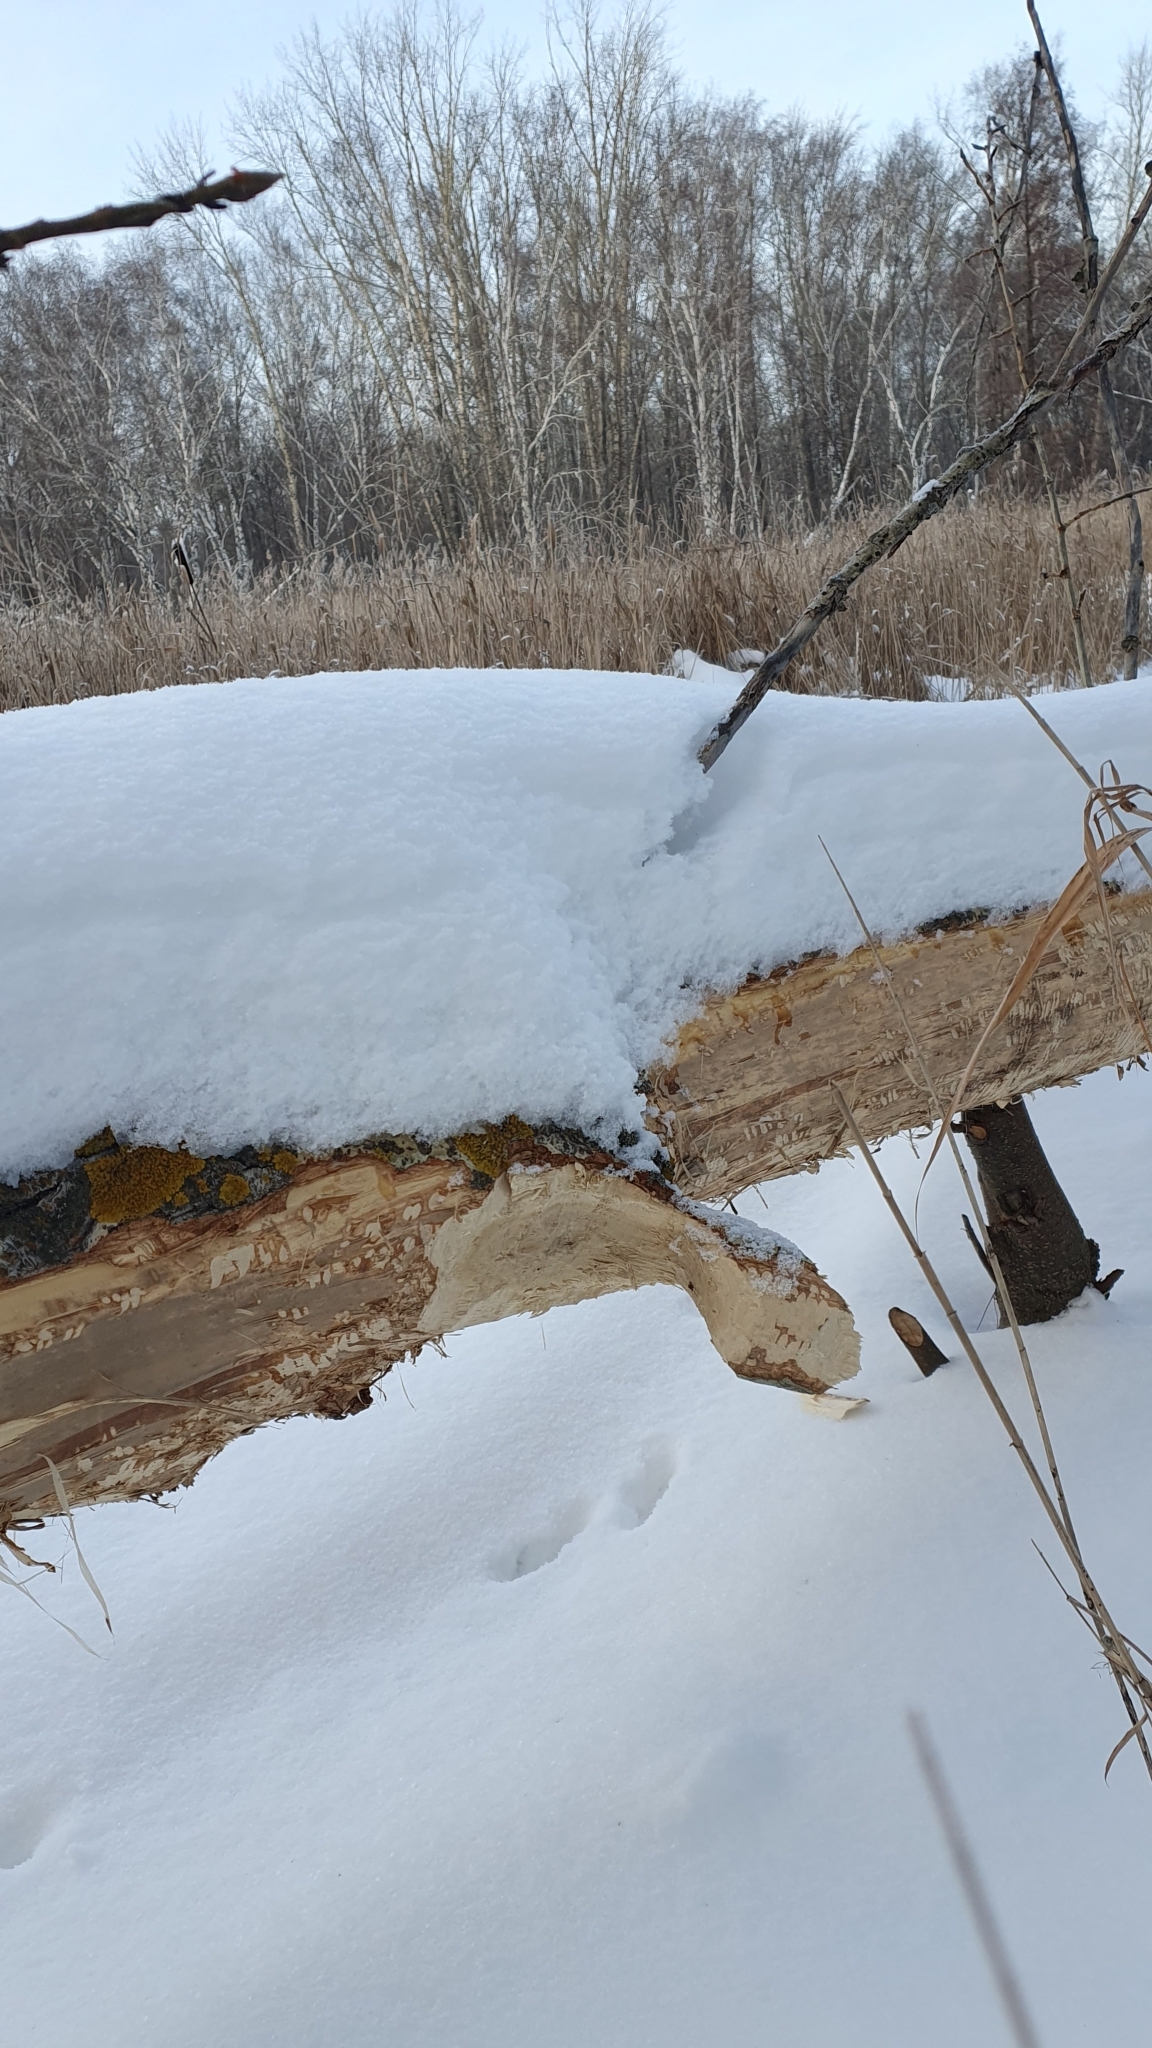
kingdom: Animalia
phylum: Chordata
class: Mammalia
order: Rodentia
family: Castoridae
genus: Castor
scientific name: Castor fiber
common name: Eurasian beaver
